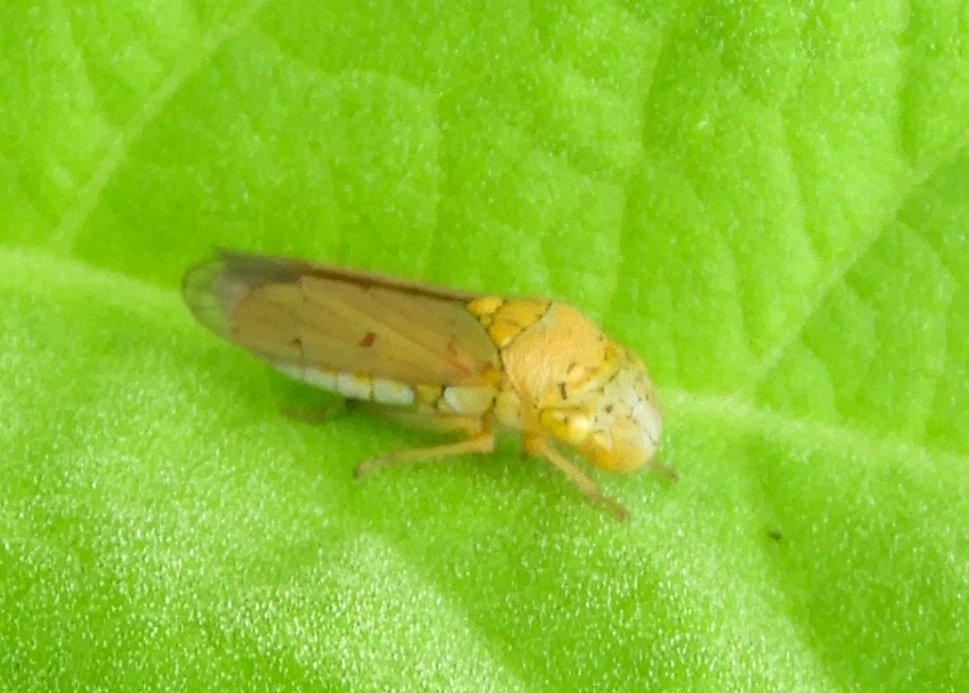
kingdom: Animalia
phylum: Arthropoda
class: Insecta
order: Hemiptera
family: Cicadellidae
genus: Oncometopia
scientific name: Oncometopia
